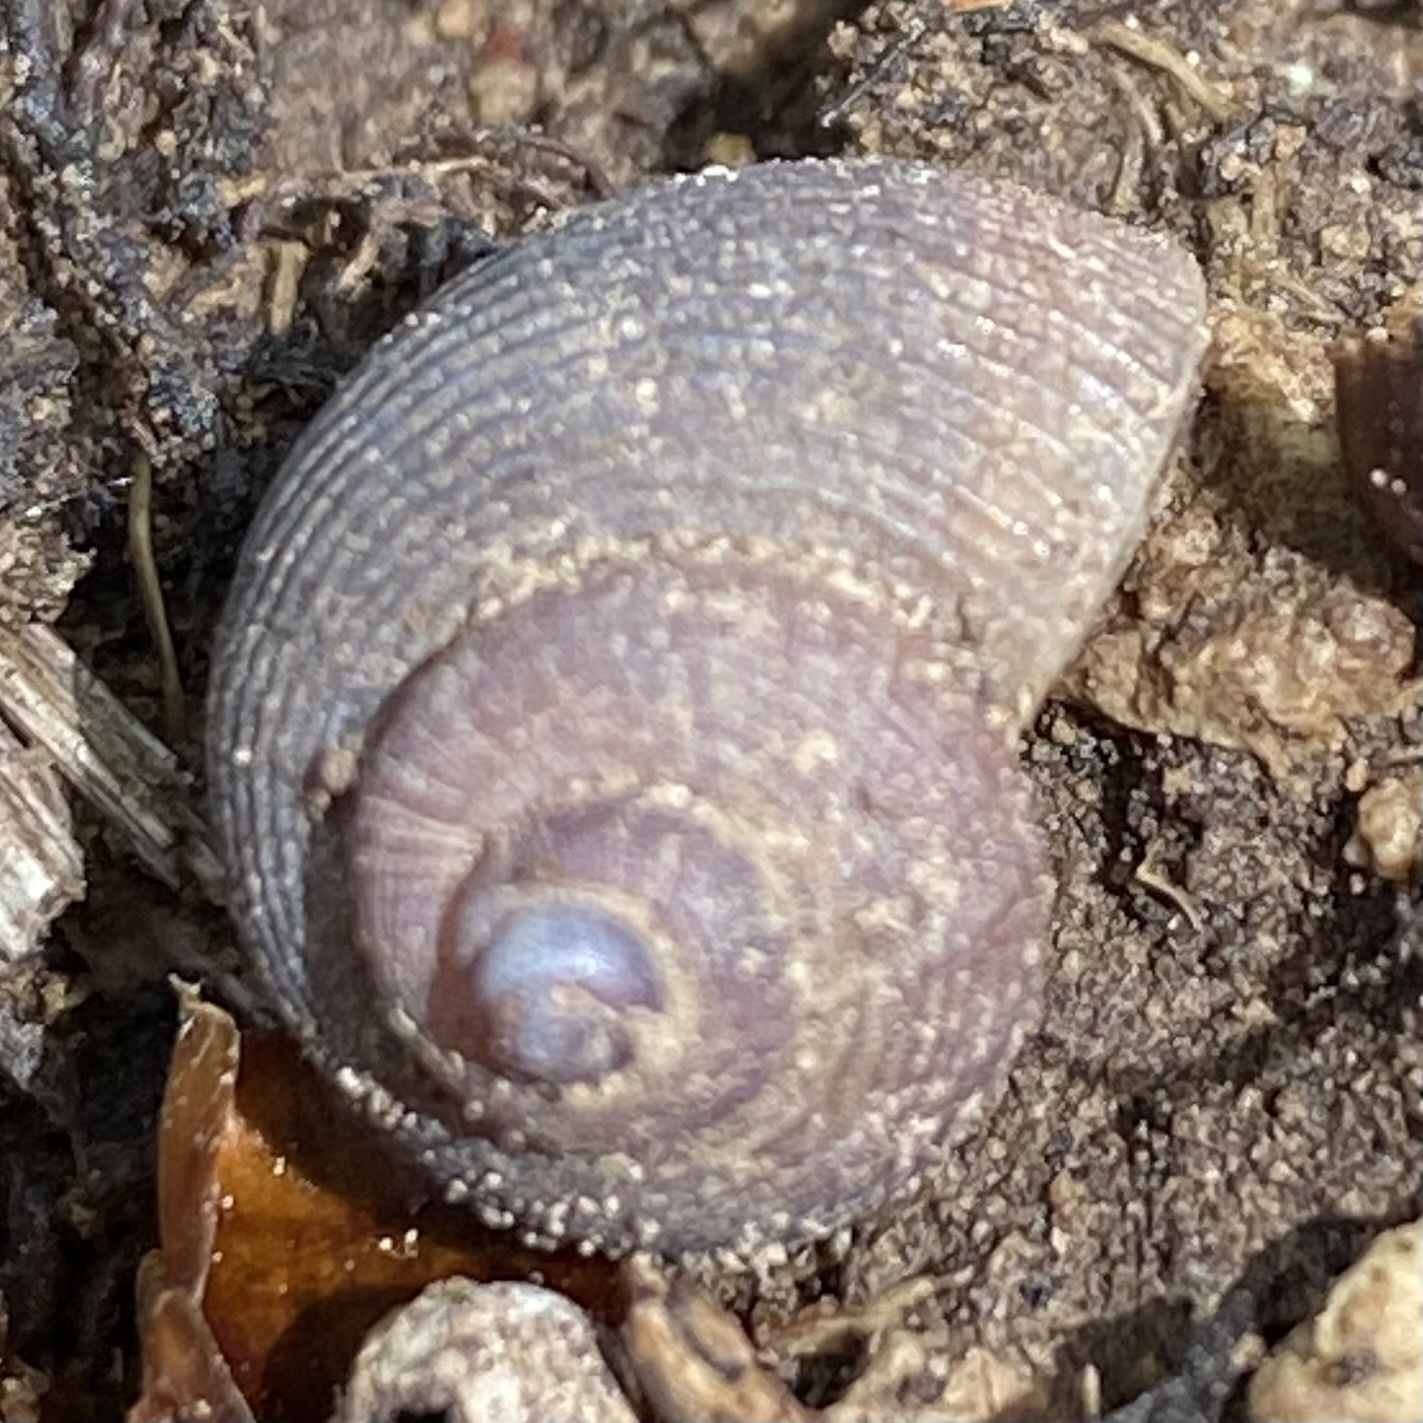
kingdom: Animalia
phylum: Mollusca
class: Gastropoda
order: Littorinimorpha
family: Pomatiidae
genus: Pomatias
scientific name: Pomatias rivularis
